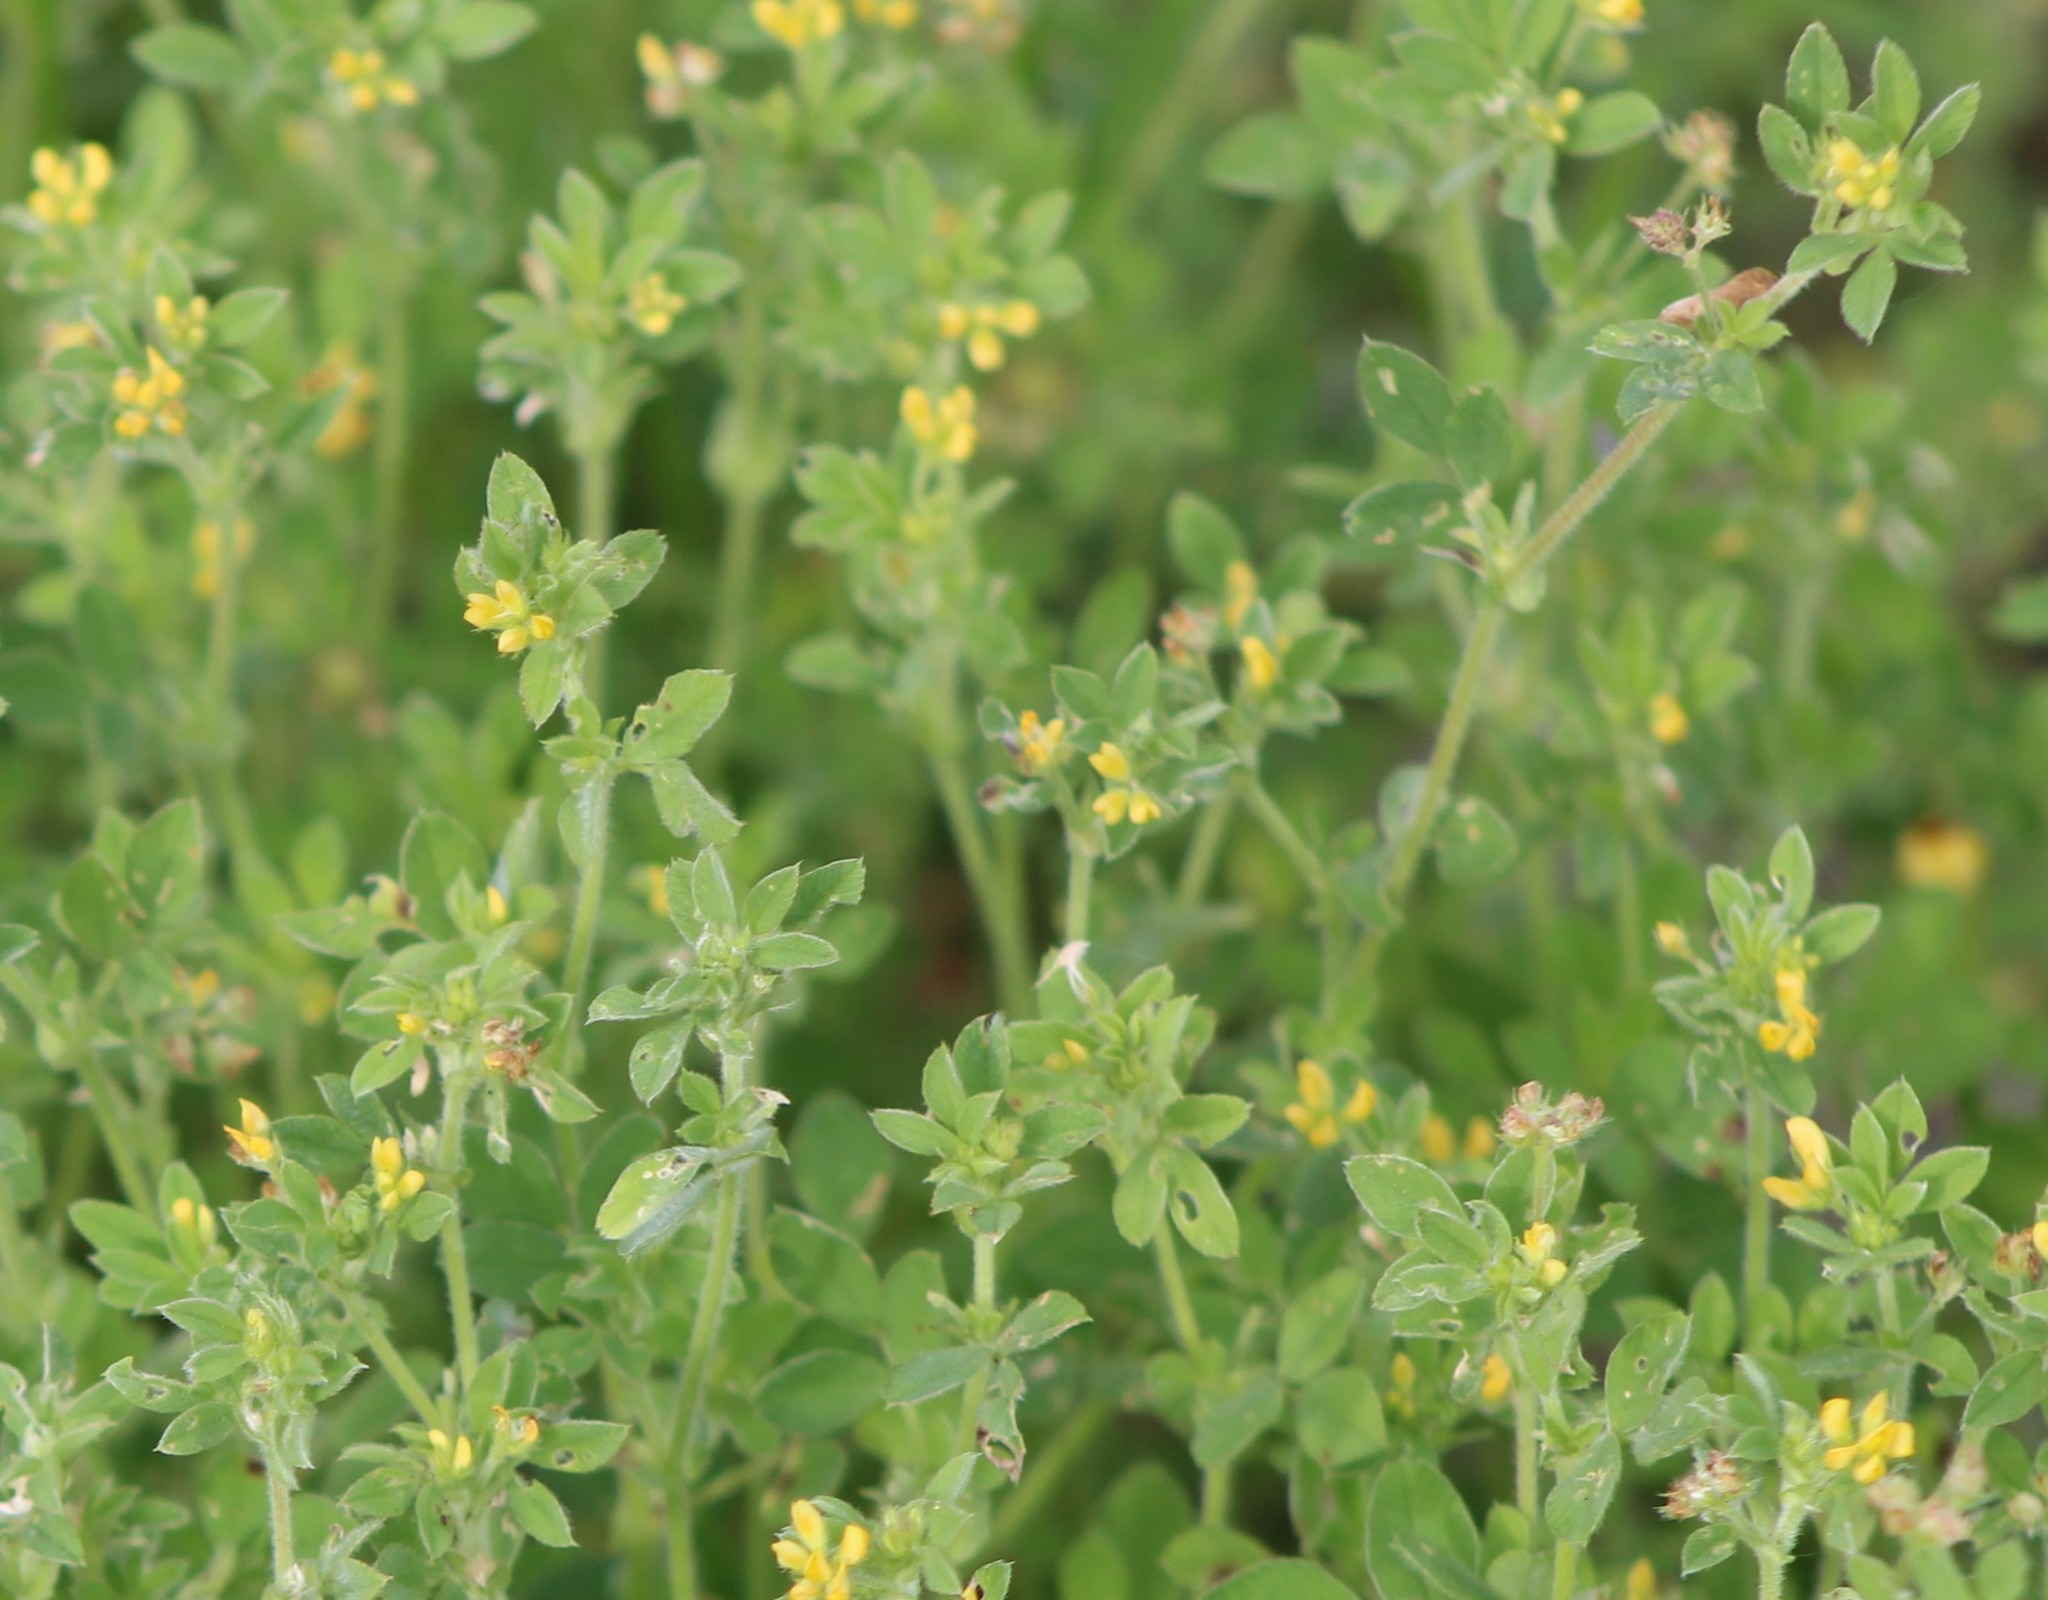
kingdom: Plantae
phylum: Tracheophyta
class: Magnoliopsida
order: Fabales
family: Fabaceae
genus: Medicago
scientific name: Medicago minima
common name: Little bur-clover
